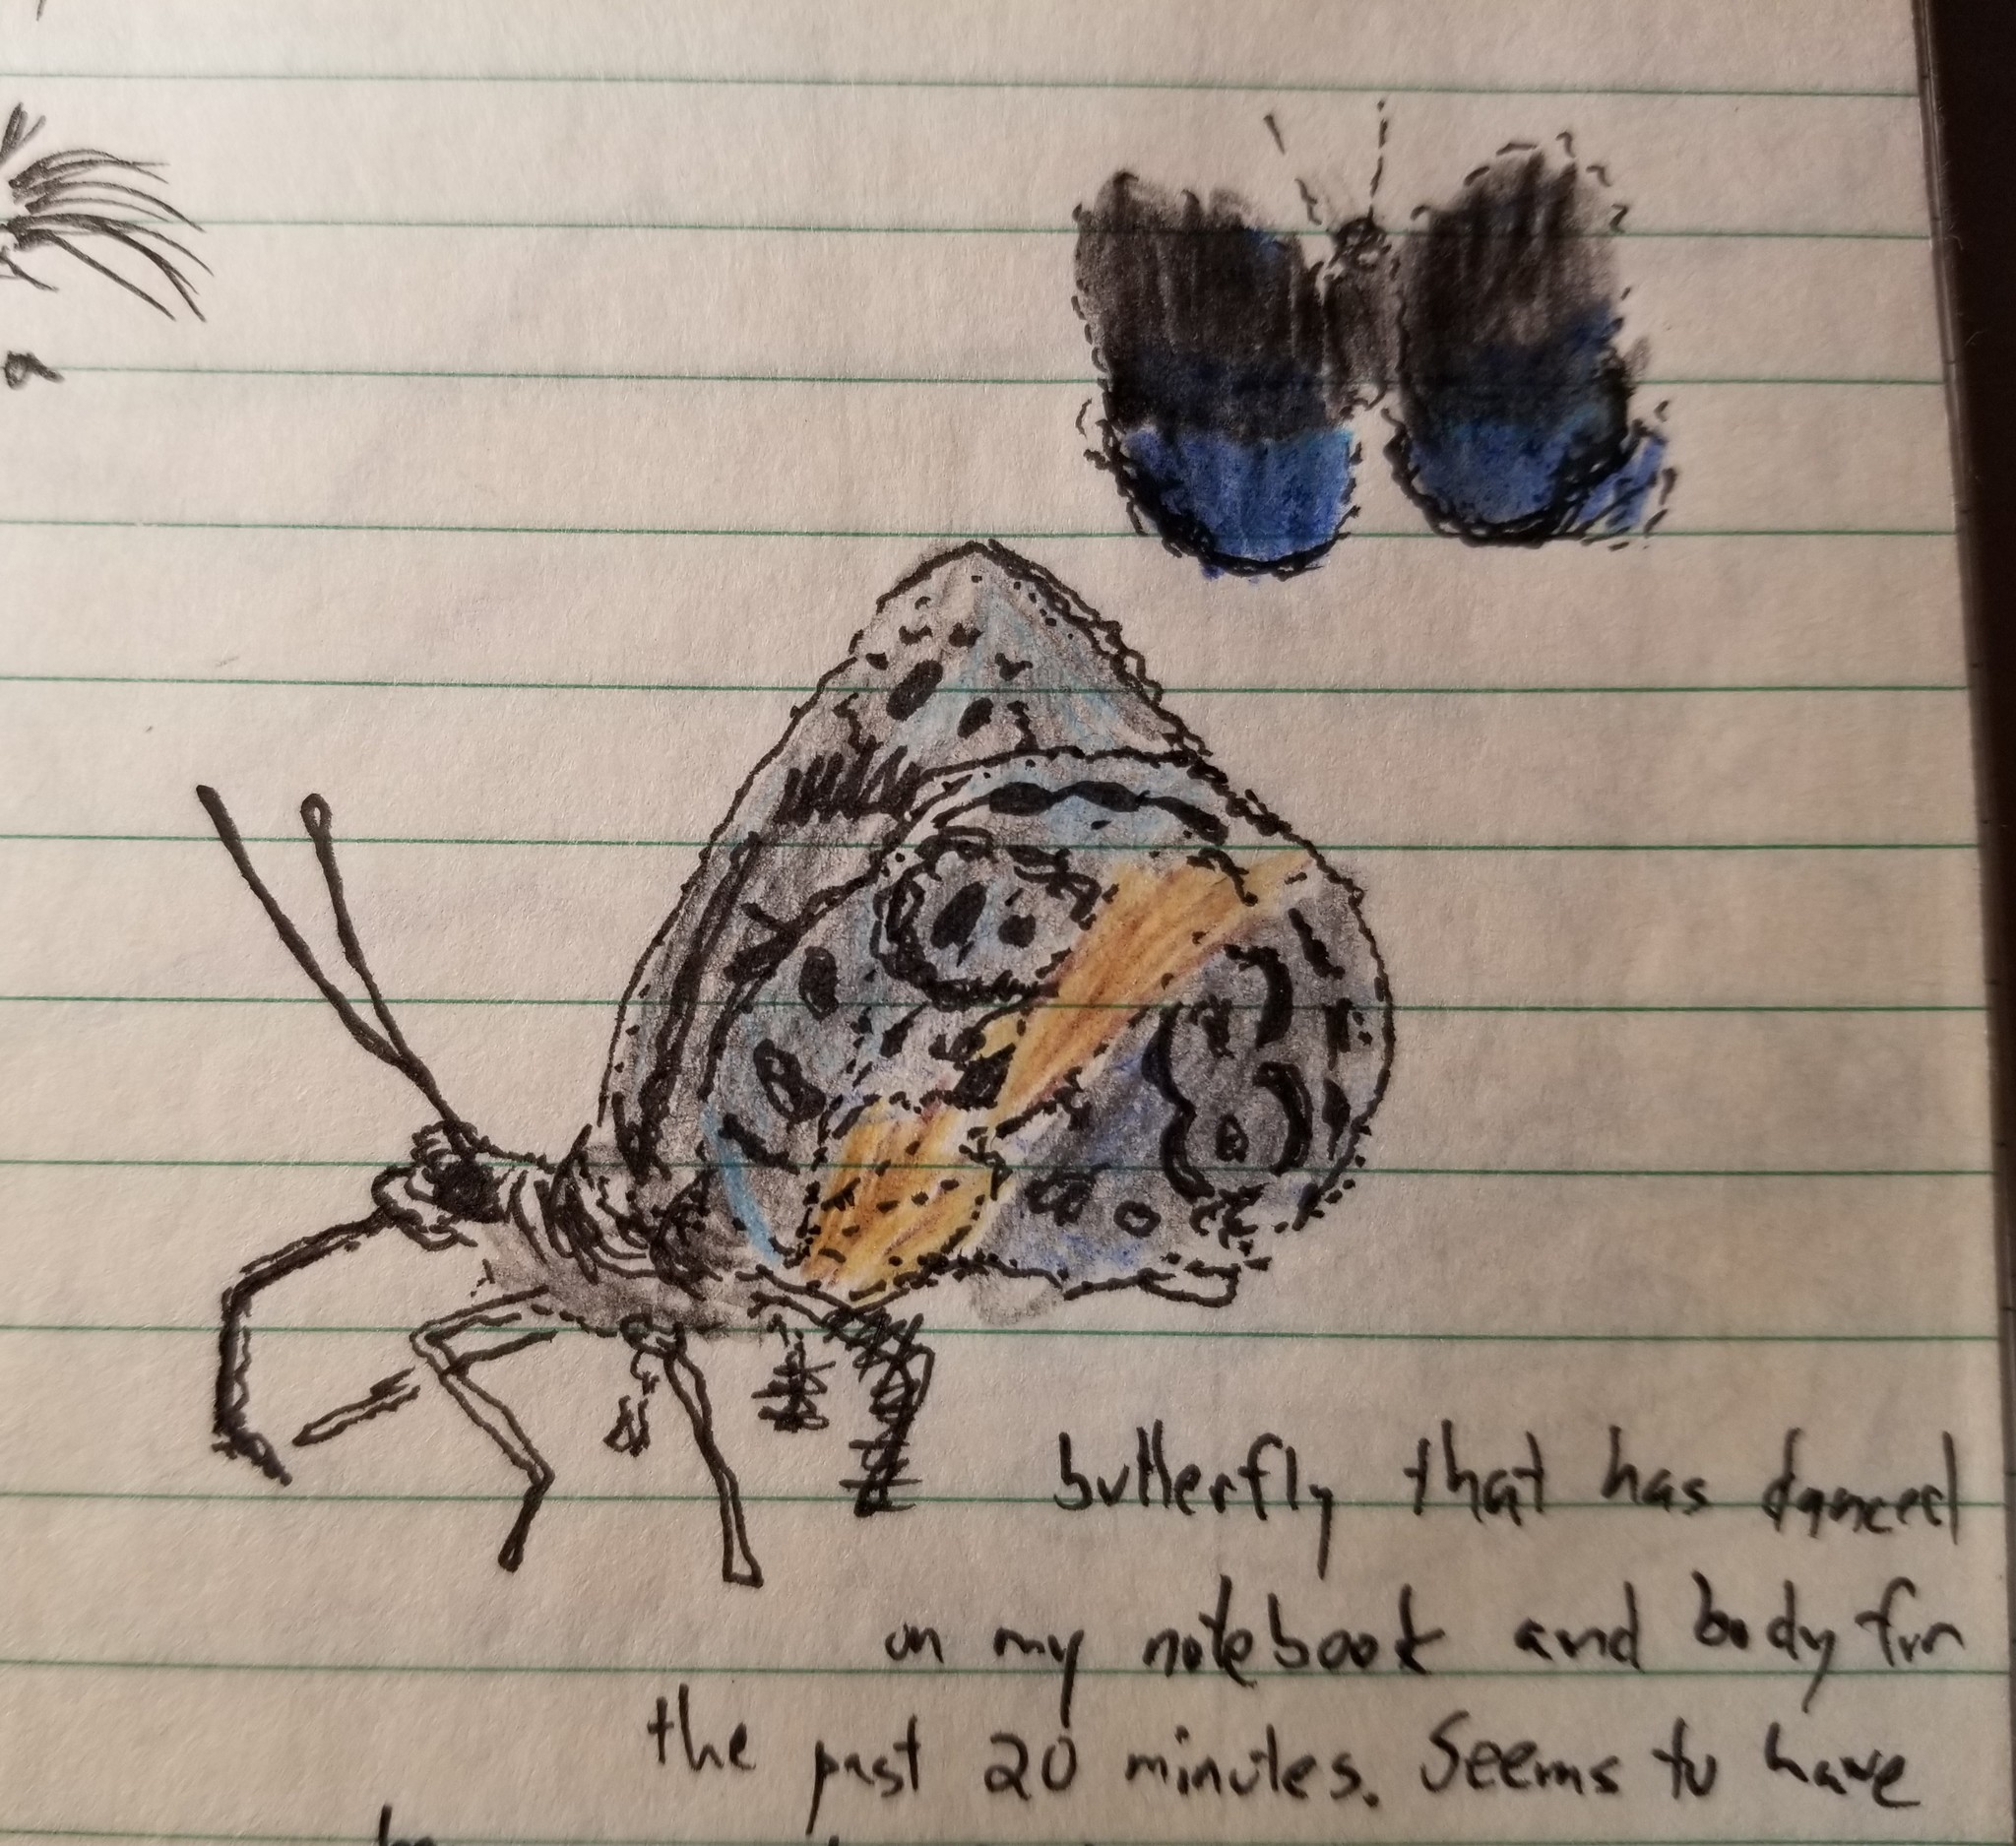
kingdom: Animalia
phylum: Arthropoda
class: Insecta
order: Lepidoptera
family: Nymphalidae
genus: Eunica
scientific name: Eunica sophonisba
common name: Glorious purplewing
